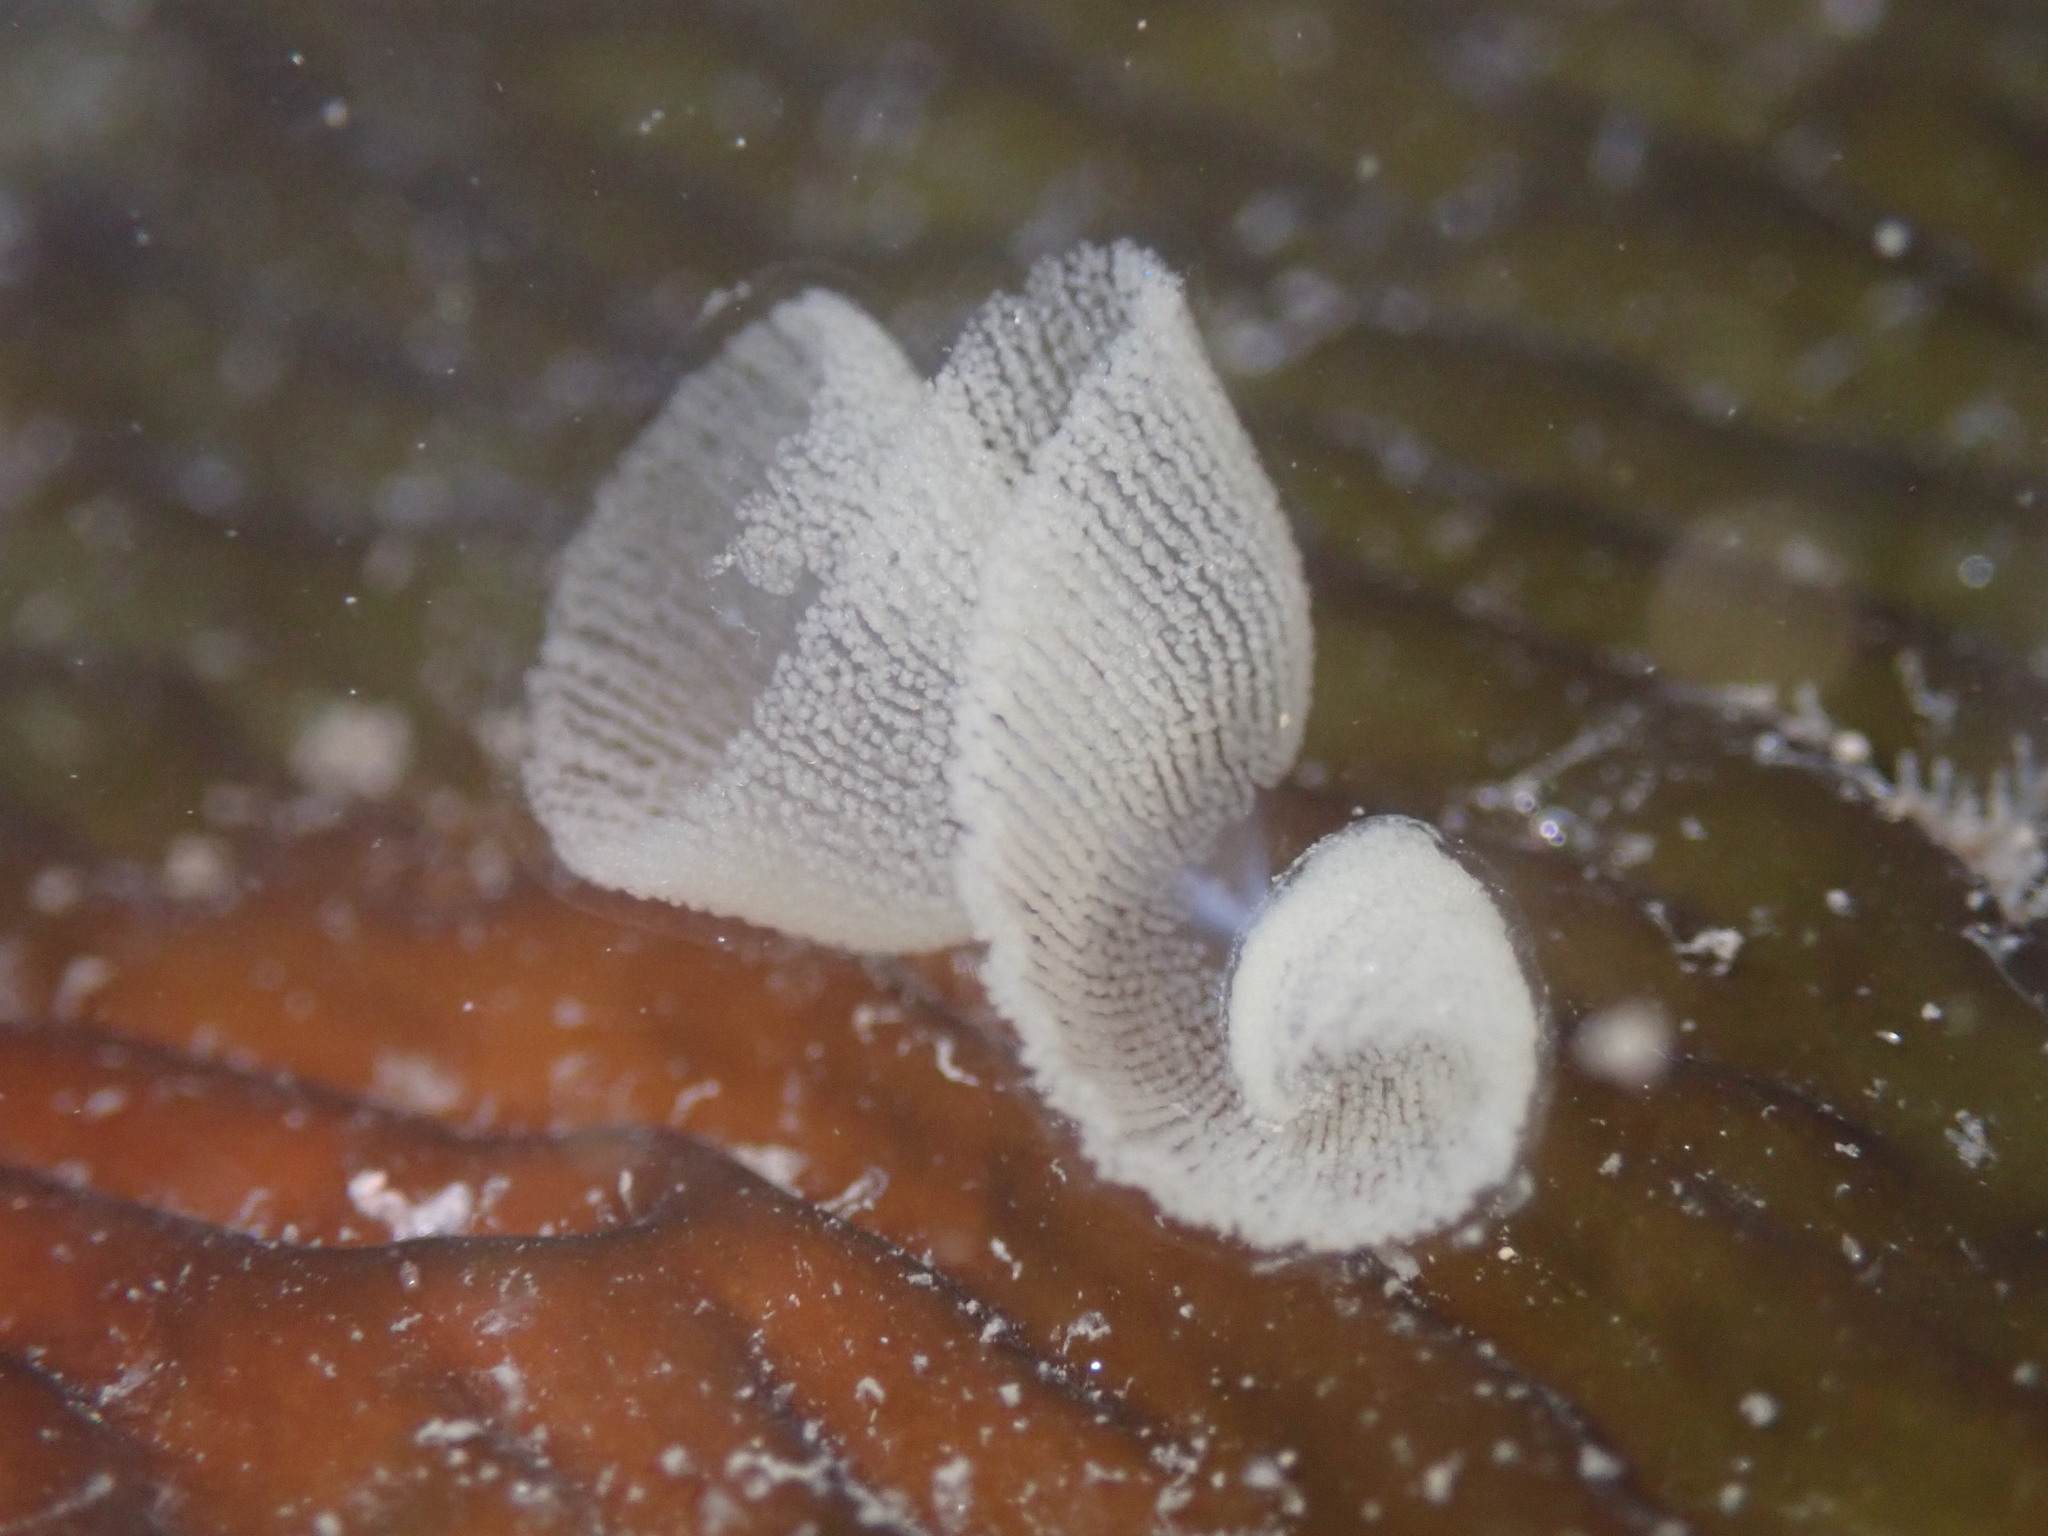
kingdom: Animalia
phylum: Mollusca
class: Gastropoda
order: Nudibranchia
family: Tethydidae
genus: Melibe
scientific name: Melibe leonina
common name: Lion nudibranch
